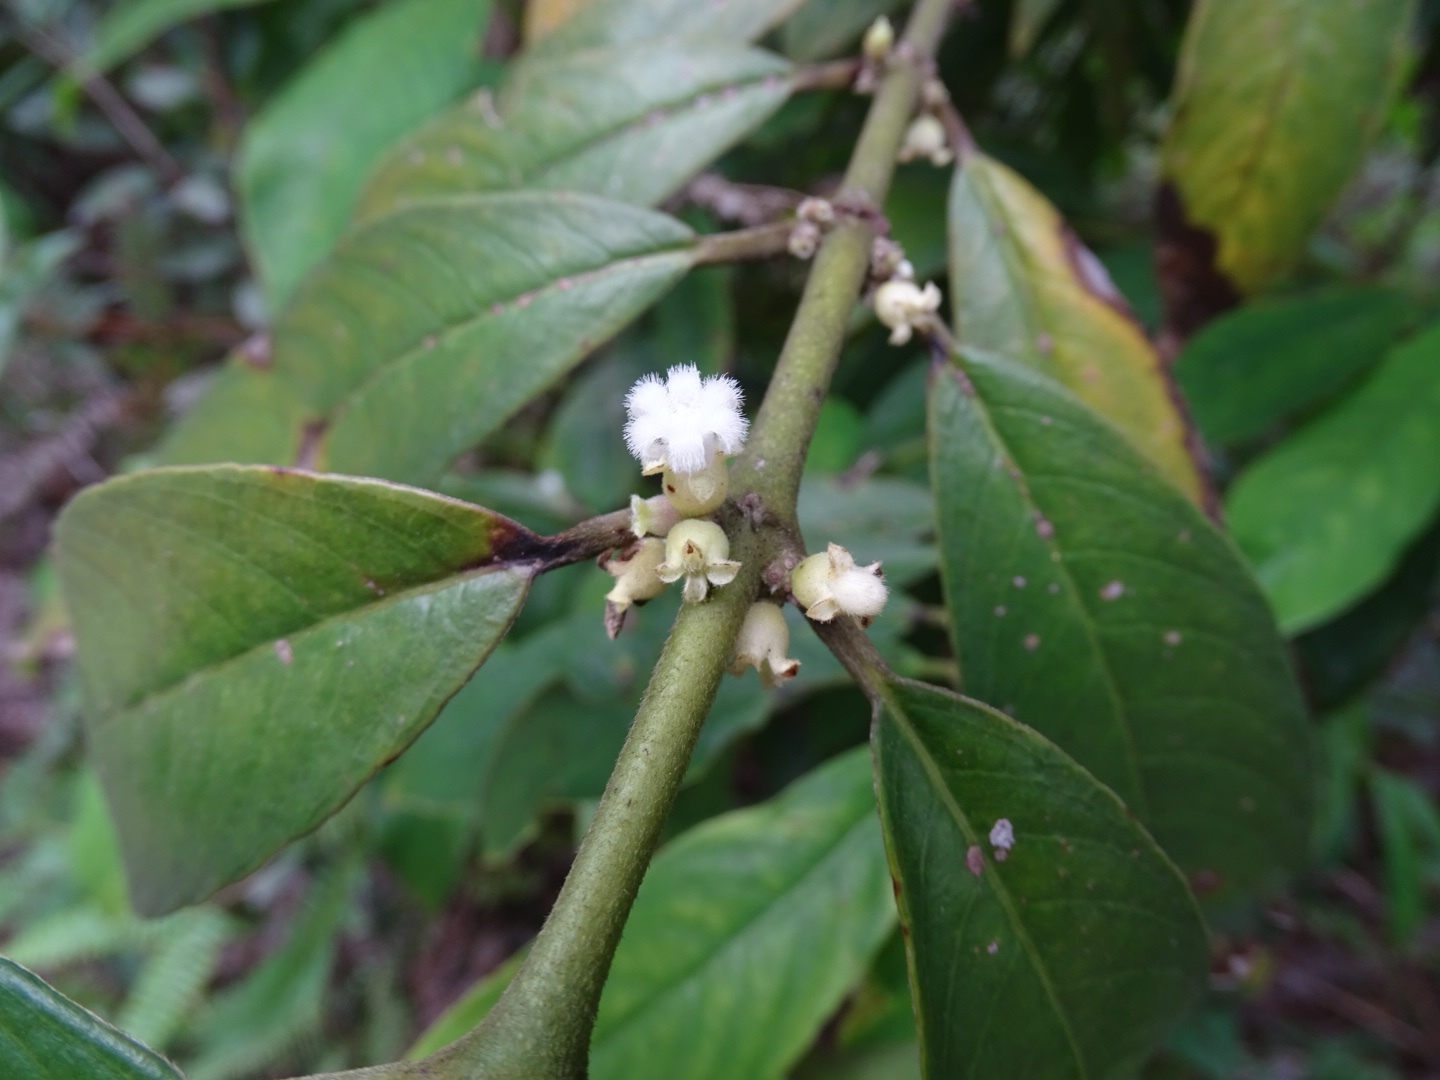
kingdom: Plantae
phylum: Tracheophyta
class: Magnoliopsida
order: Gentianales
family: Rubiaceae
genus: Lasianthus
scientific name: Lasianthus chinensis
